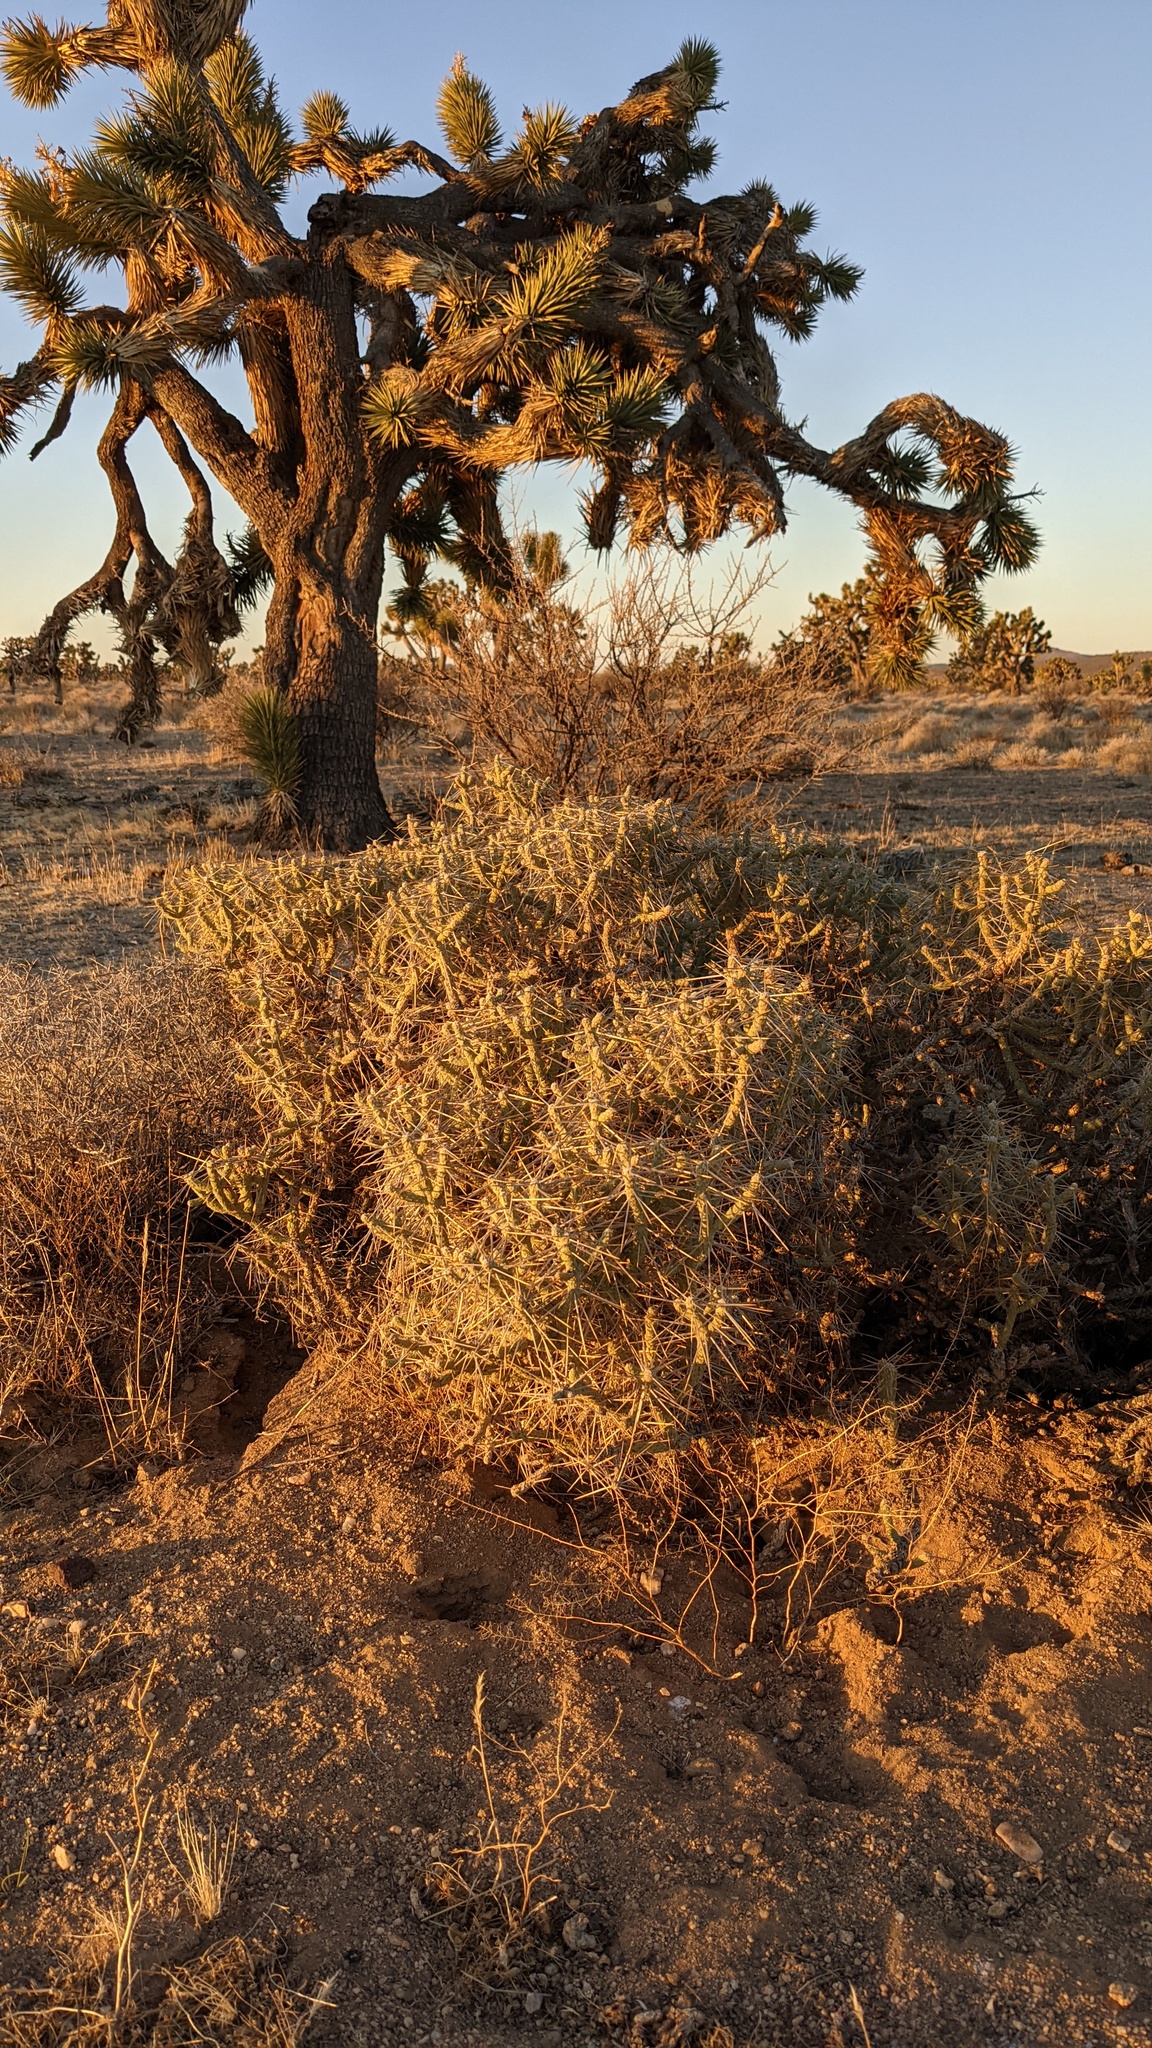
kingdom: Plantae
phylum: Tracheophyta
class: Magnoliopsida
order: Caryophyllales
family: Cactaceae
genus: Cylindropuntia
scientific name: Cylindropuntia ramosissima
